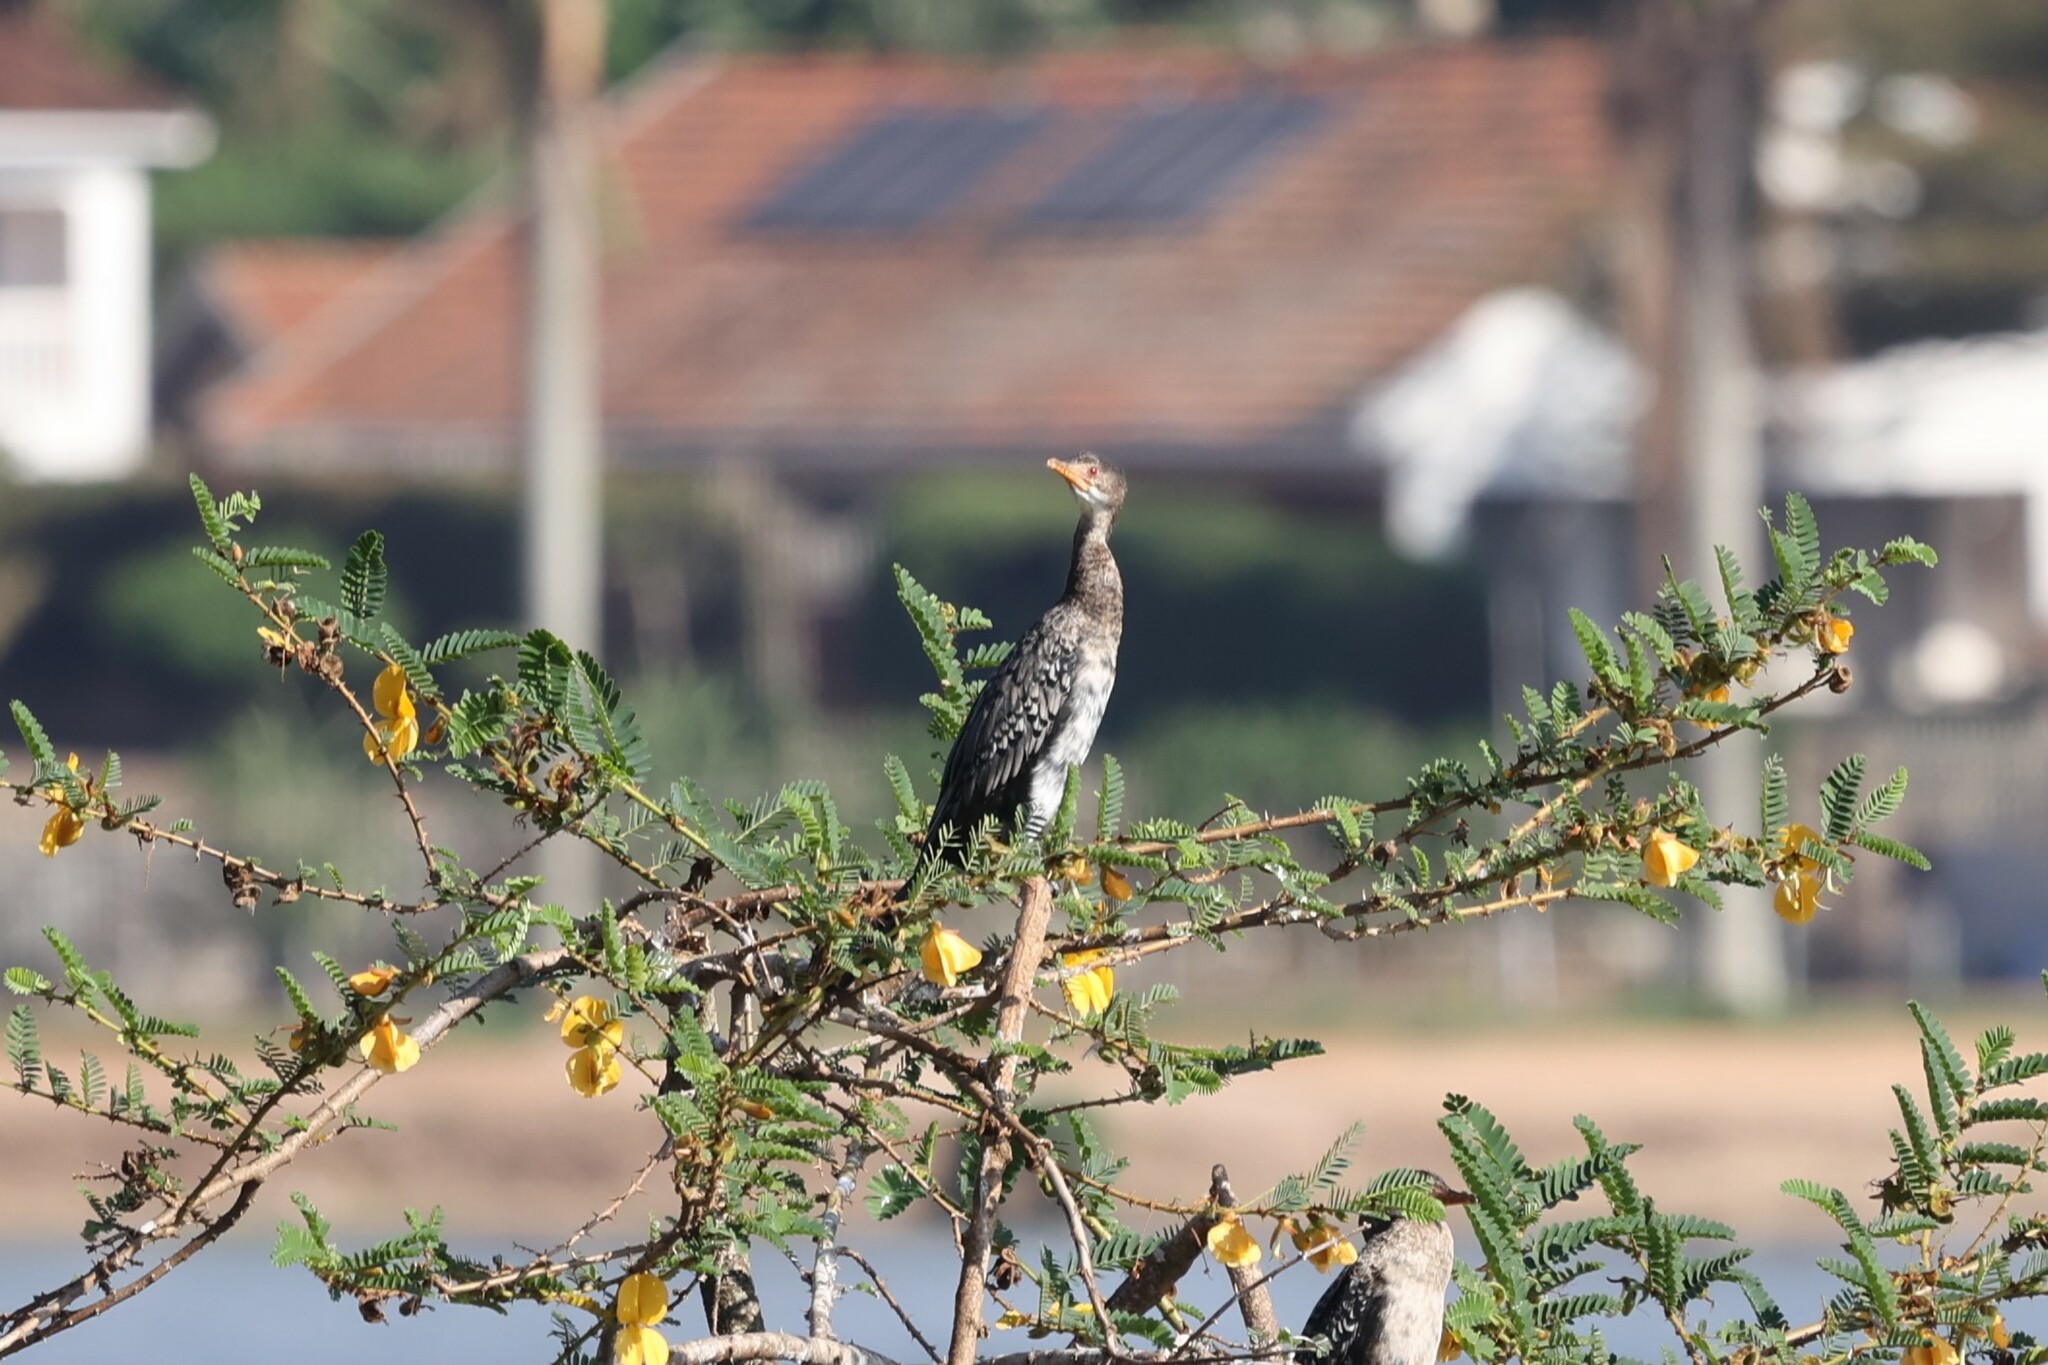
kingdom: Animalia
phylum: Chordata
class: Aves
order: Suliformes
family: Phalacrocoracidae
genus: Microcarbo
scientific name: Microcarbo africanus
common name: Long-tailed cormorant
